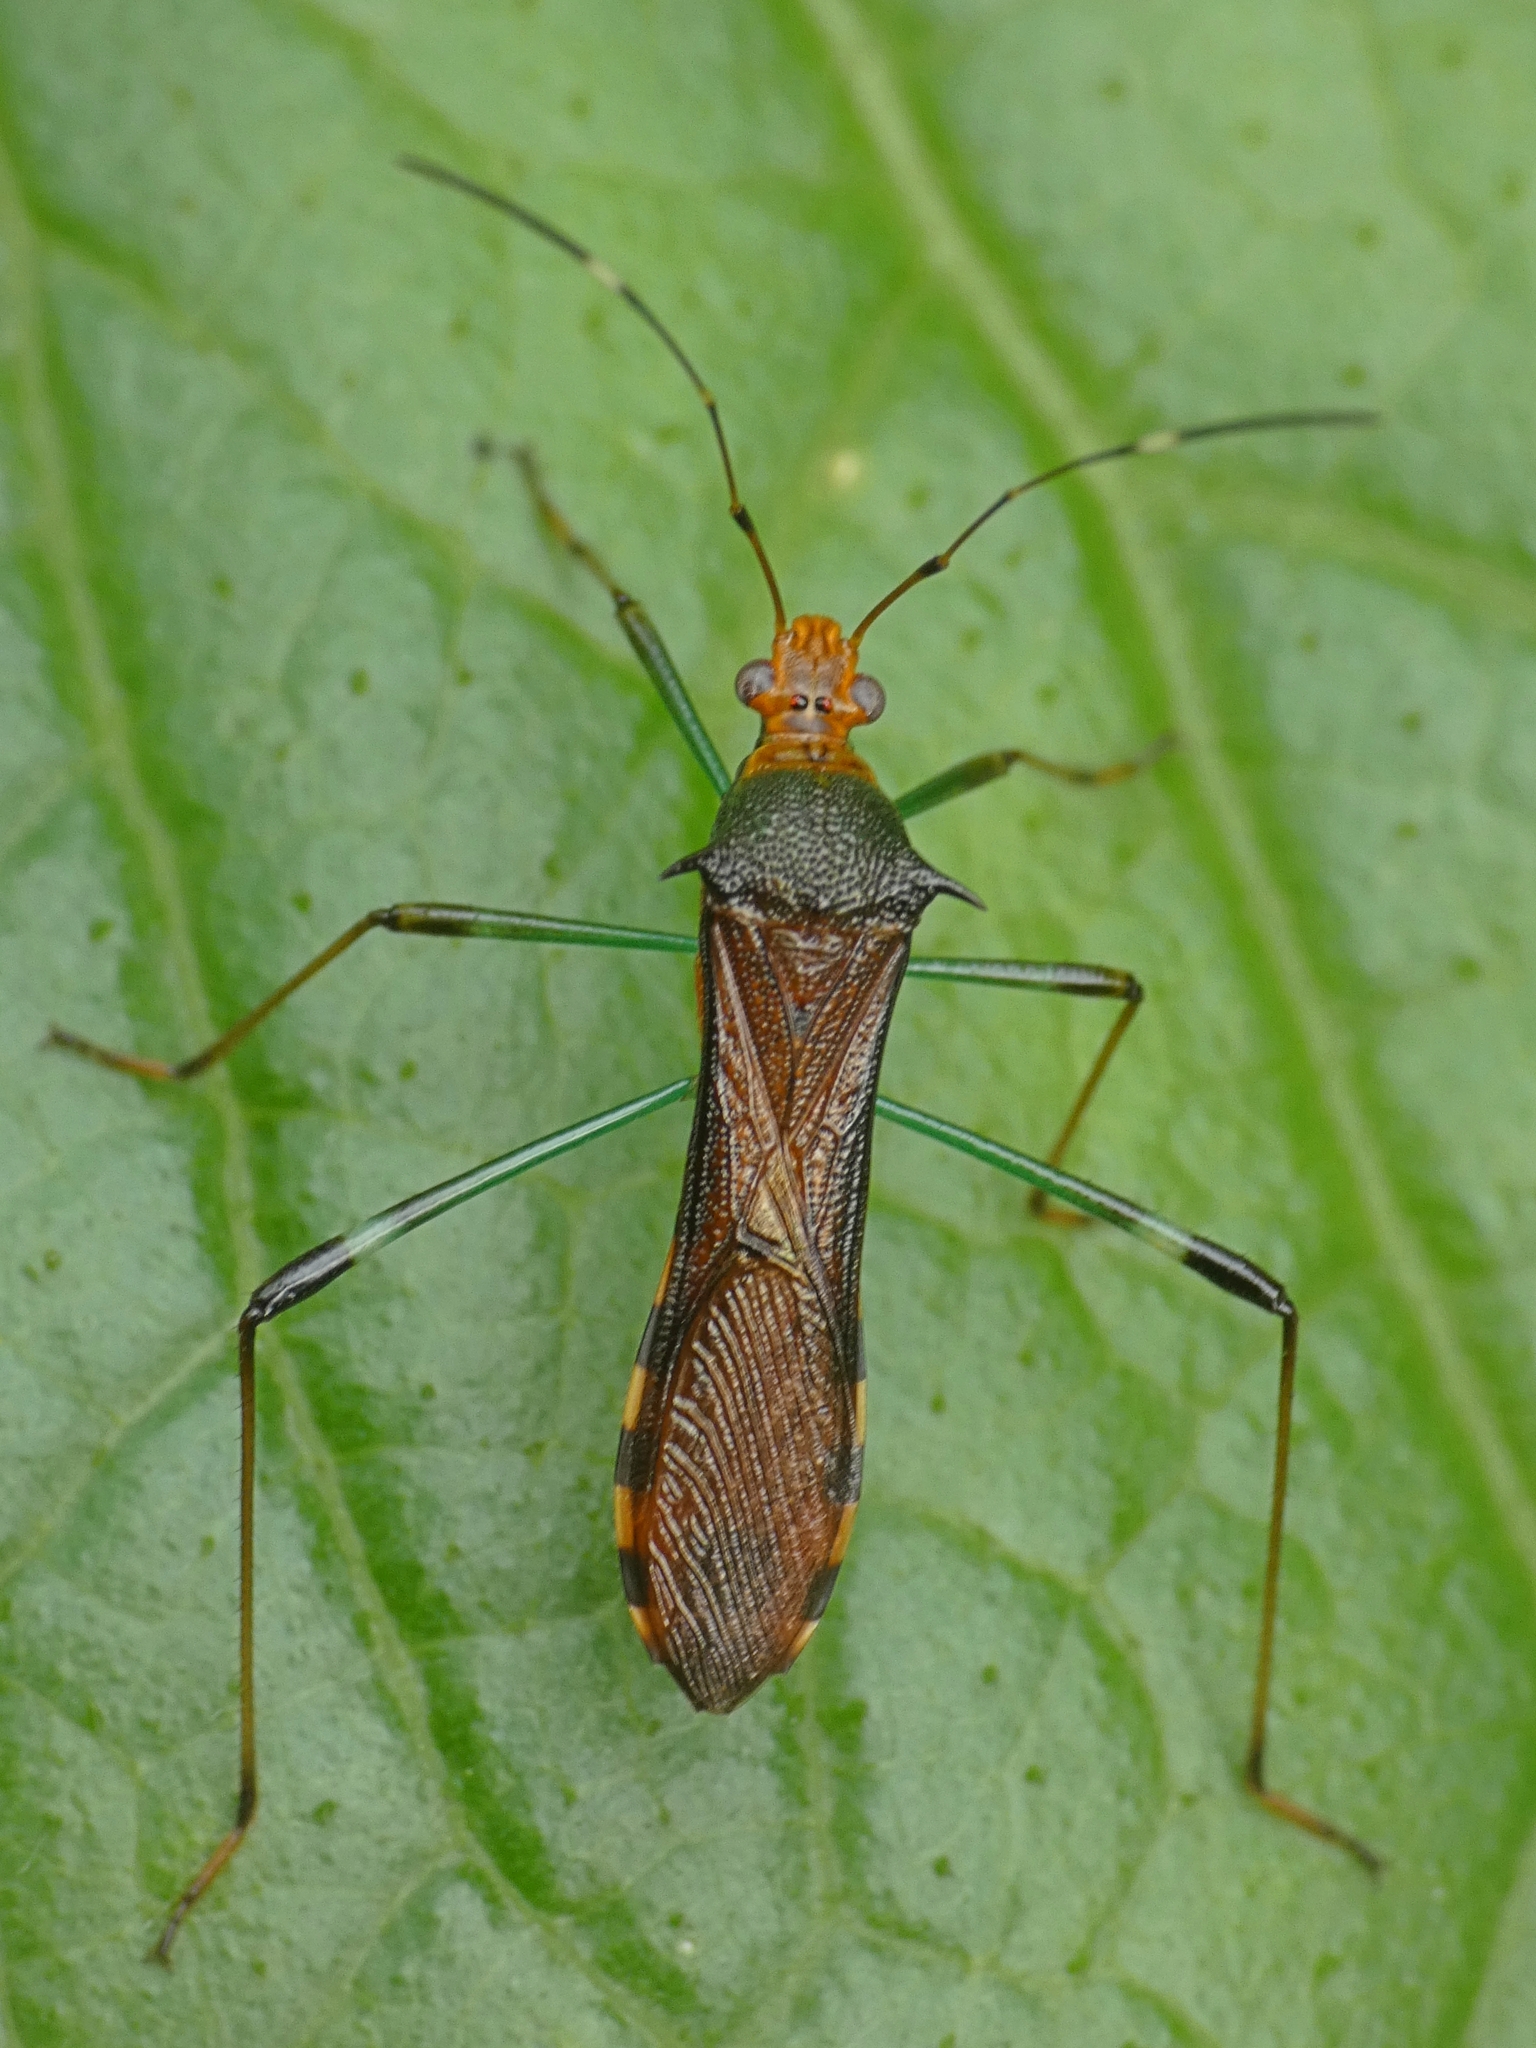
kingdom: Animalia
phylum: Arthropoda
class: Insecta
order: Hemiptera
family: Alydidae
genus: Noliphus
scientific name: Noliphus annulipes
